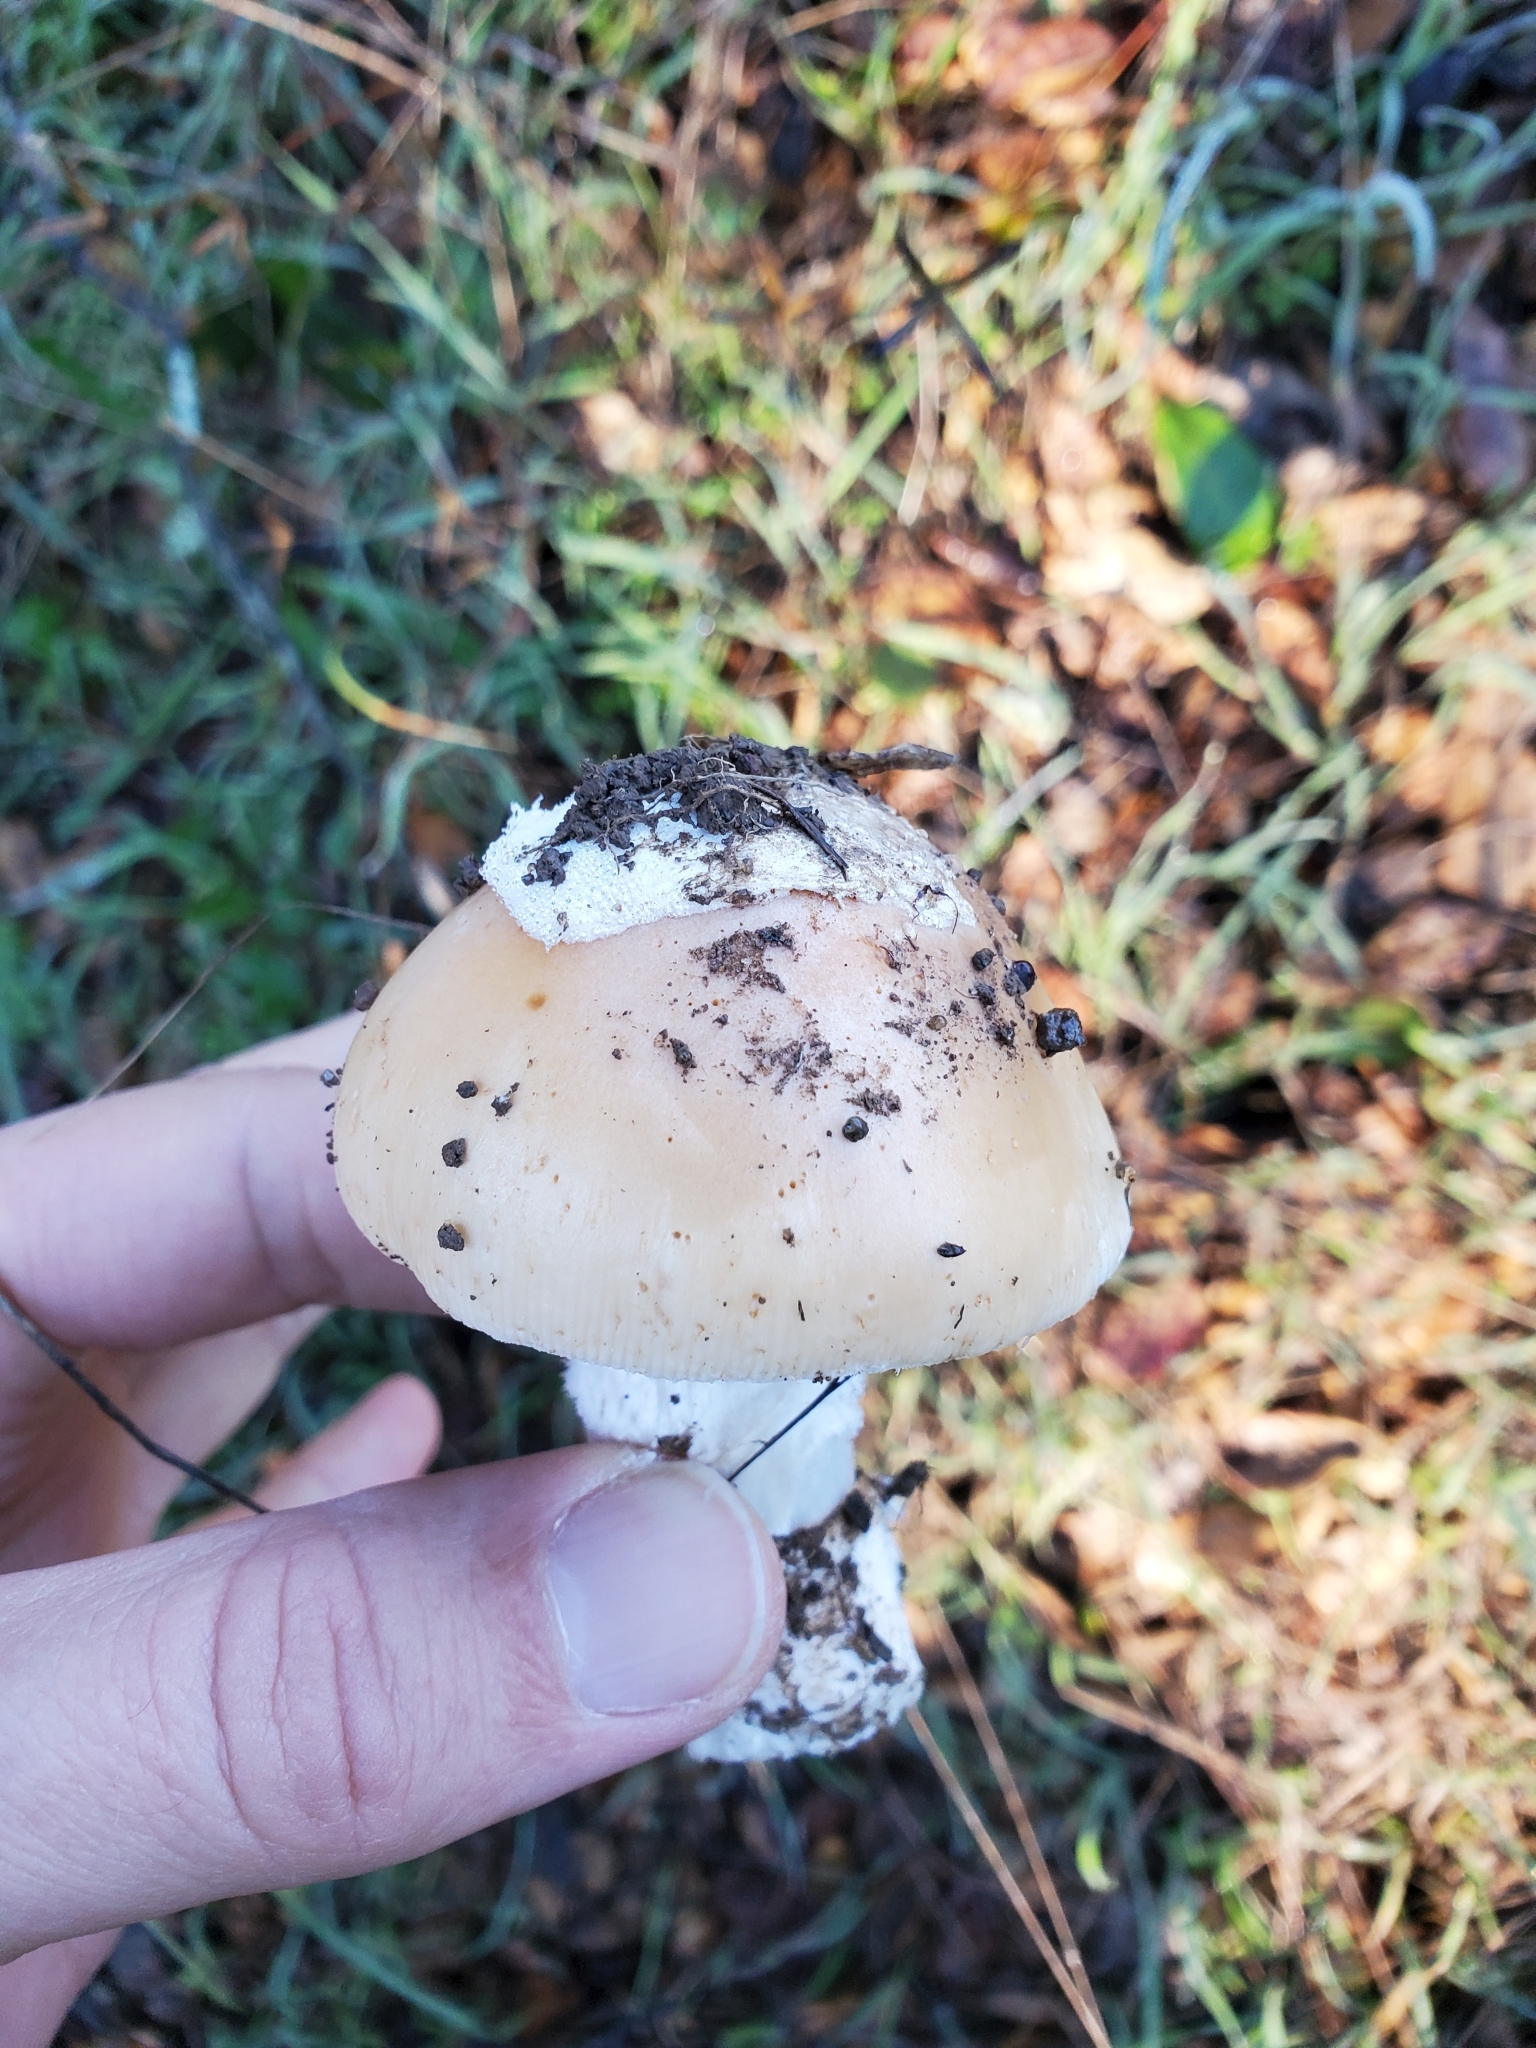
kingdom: Fungi
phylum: Basidiomycota
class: Agaricomycetes
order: Agaricales
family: Amanitaceae
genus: Amanita
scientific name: Amanita velosa
